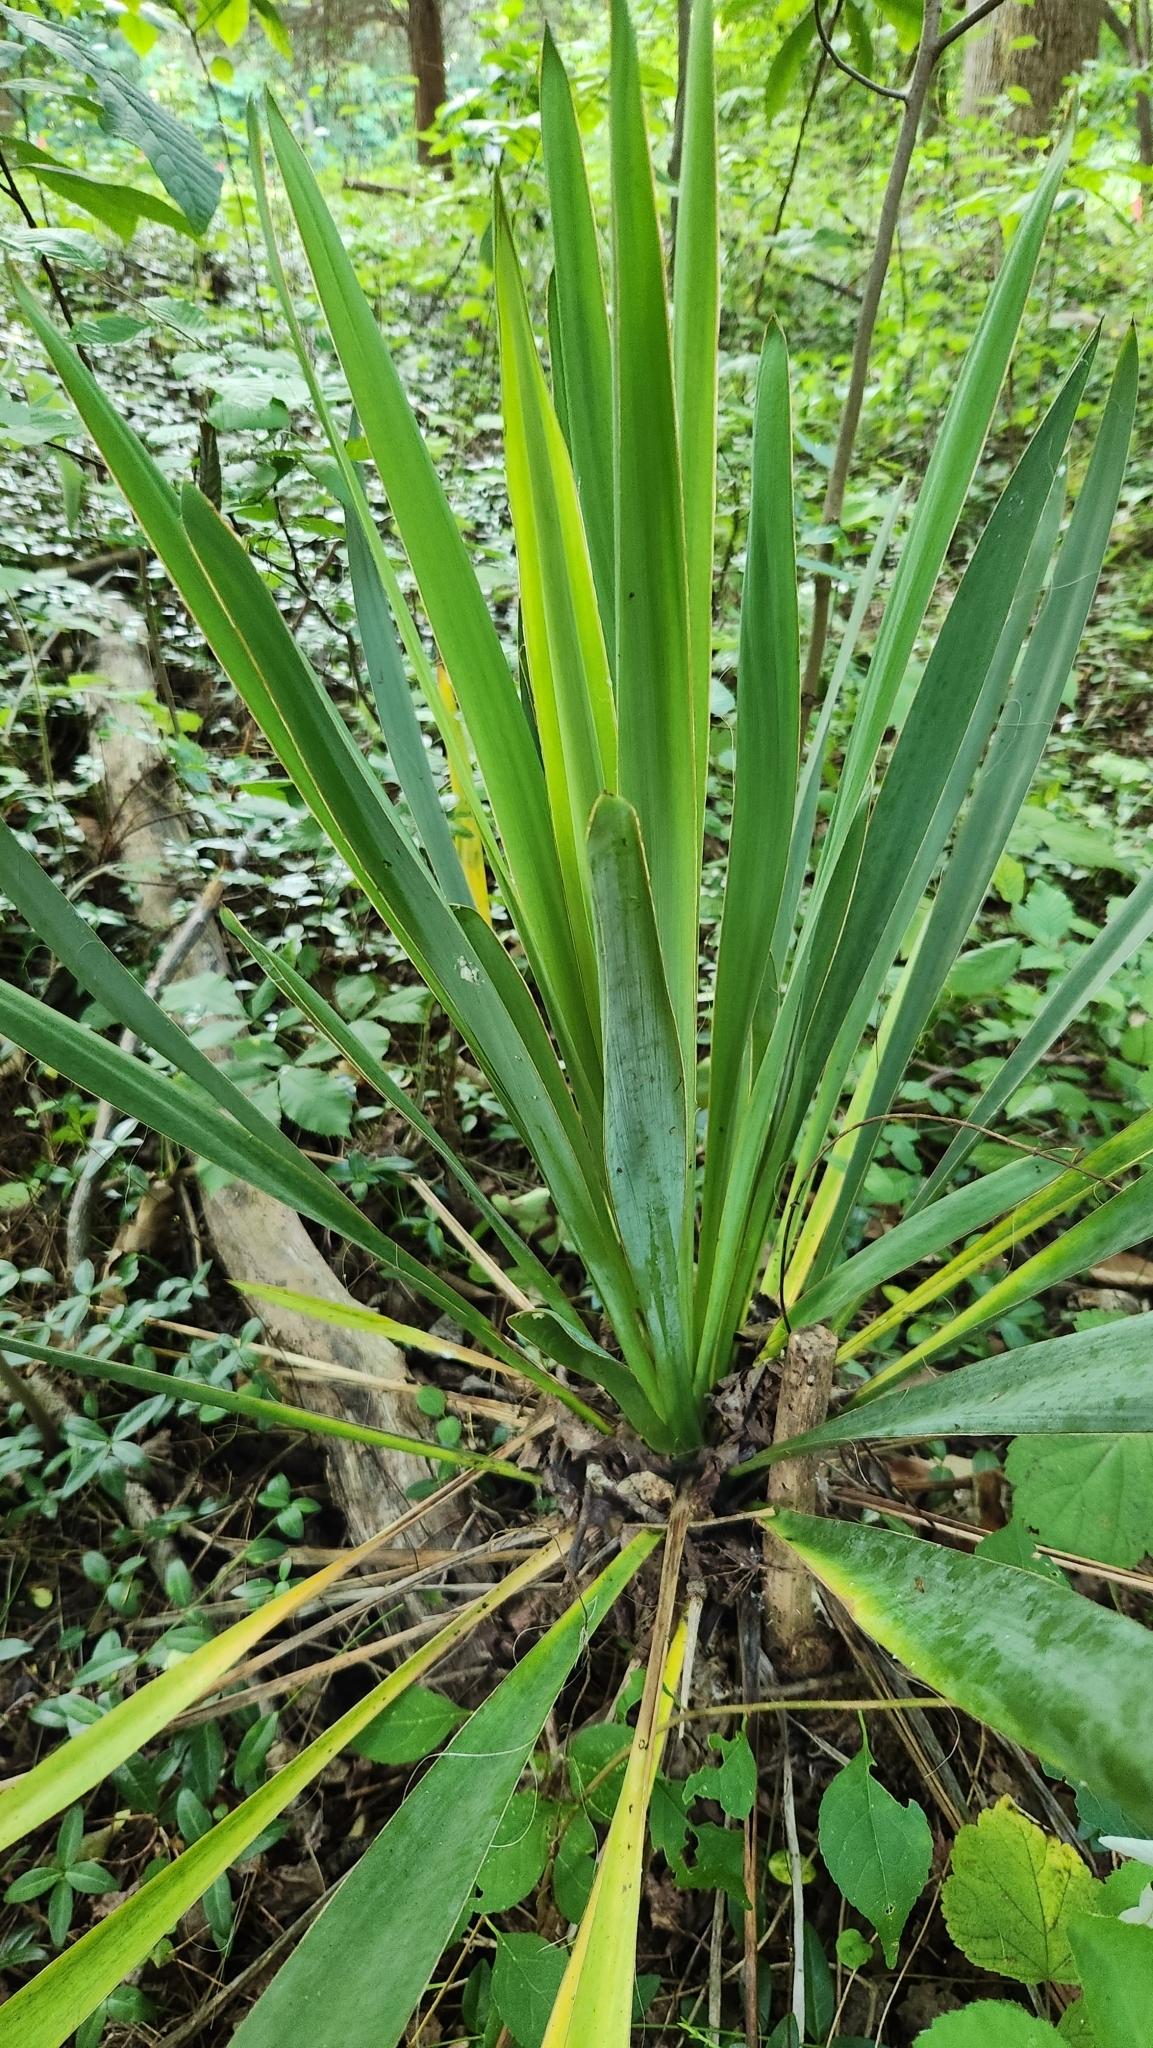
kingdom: Plantae
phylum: Tracheophyta
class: Liliopsida
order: Asparagales
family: Asparagaceae
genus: Yucca
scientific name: Yucca filamentosa
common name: Adam's-needle
